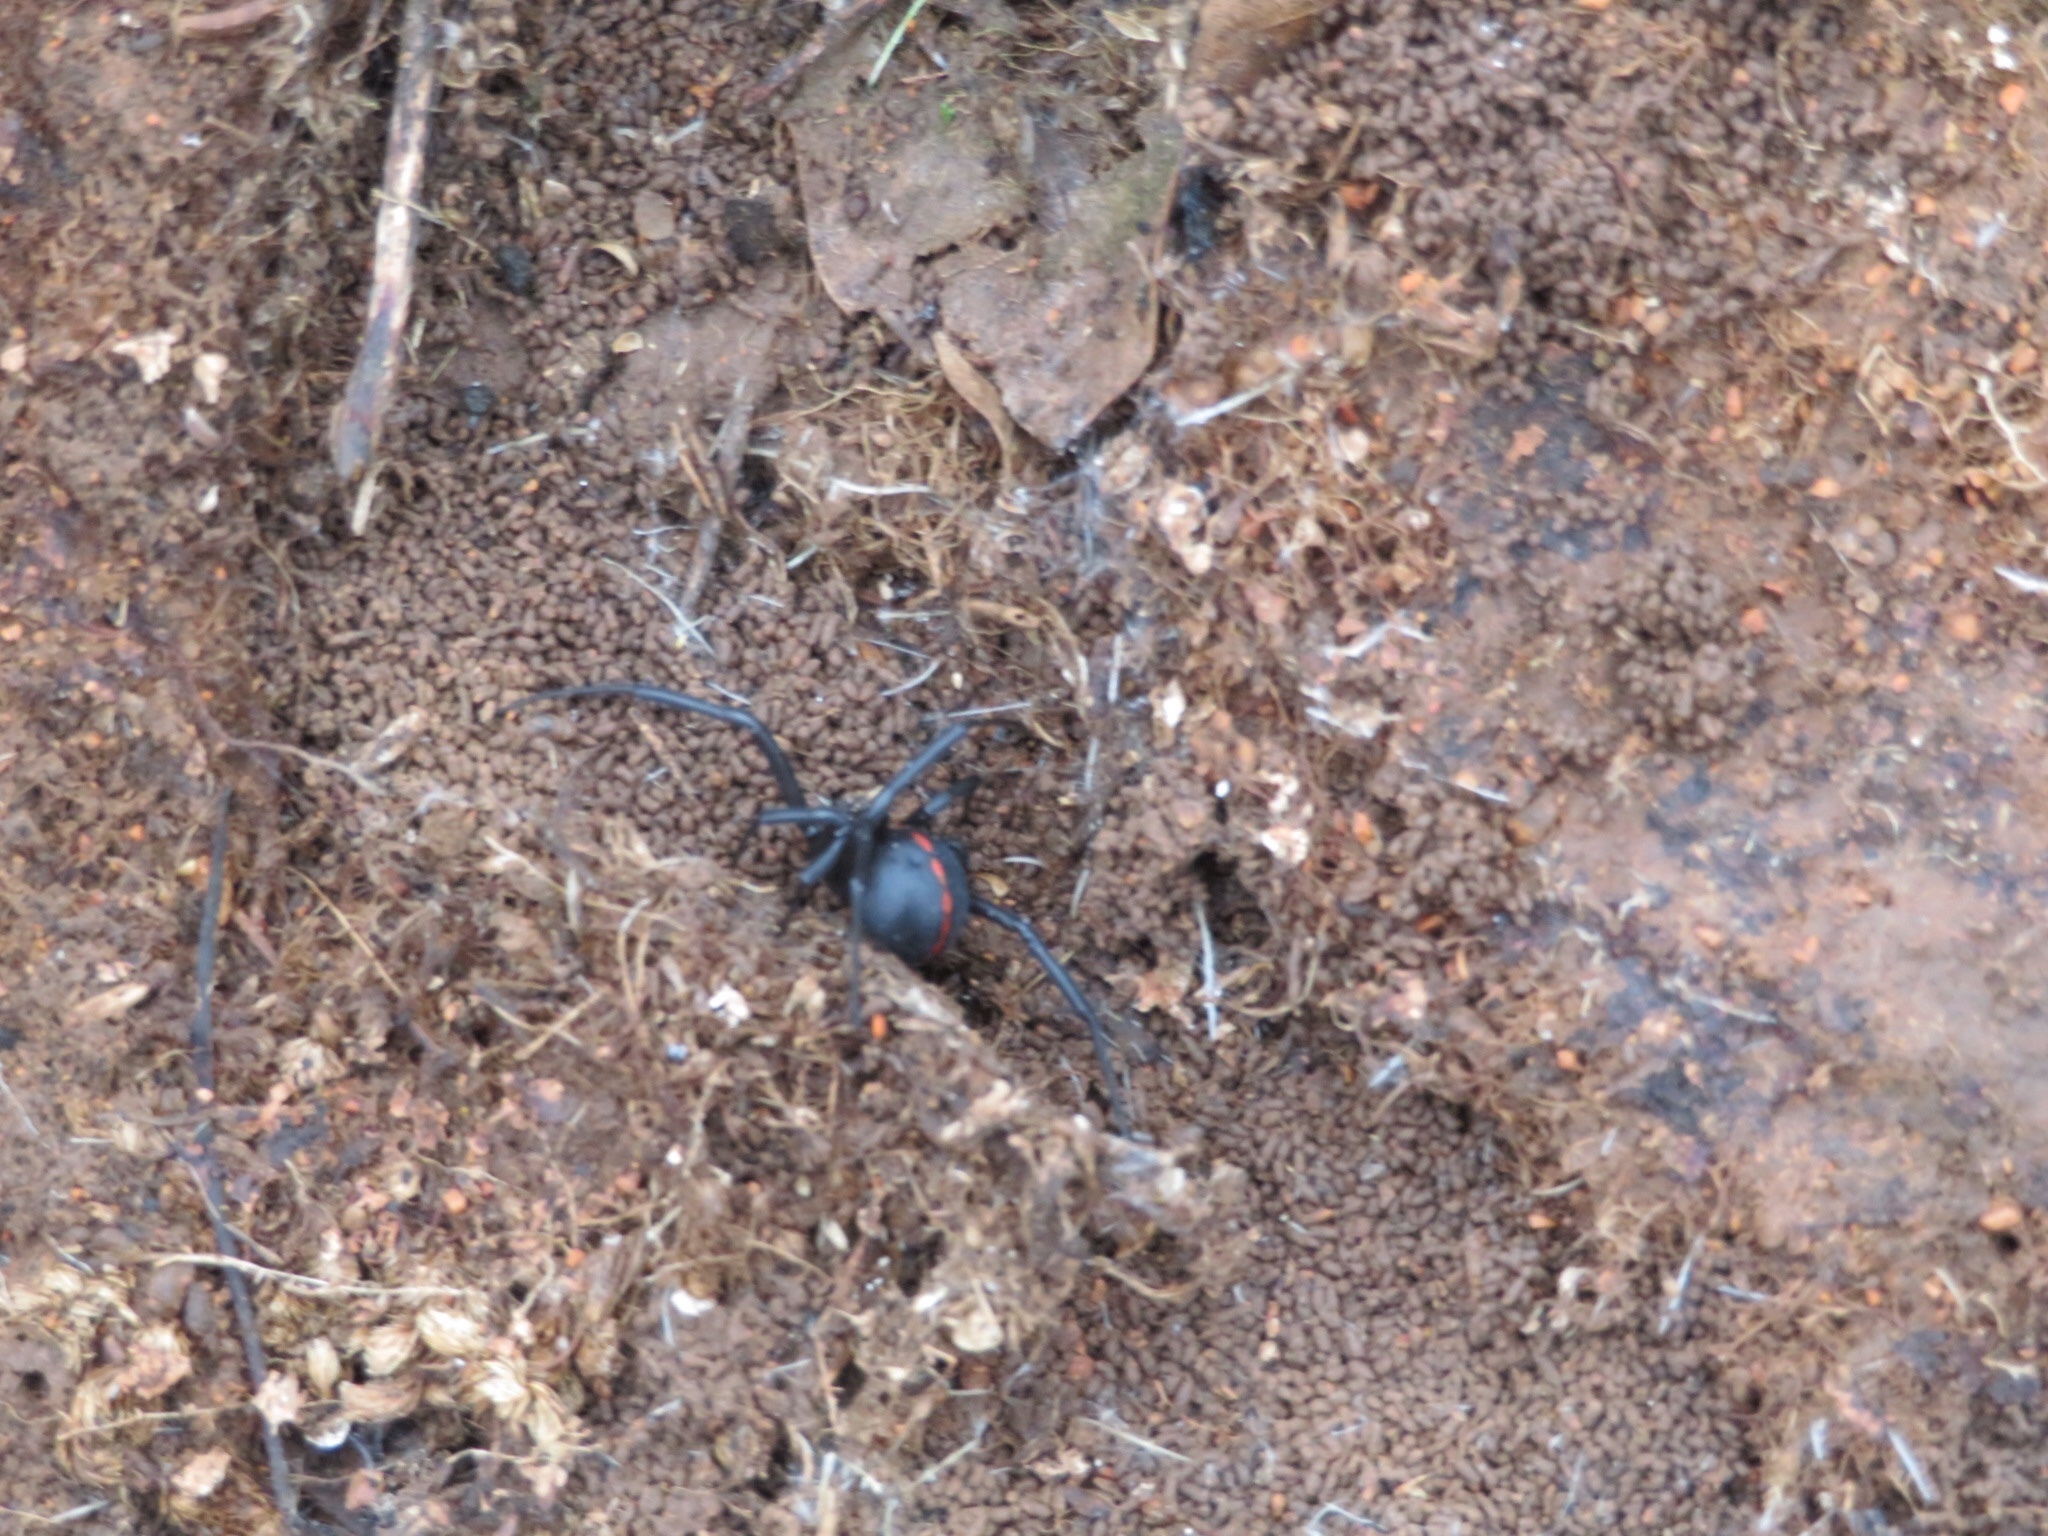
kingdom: Animalia
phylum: Arthropoda
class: Arachnida
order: Araneae
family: Theridiidae
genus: Latrodectus
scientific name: Latrodectus hesperus
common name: Western black widow
